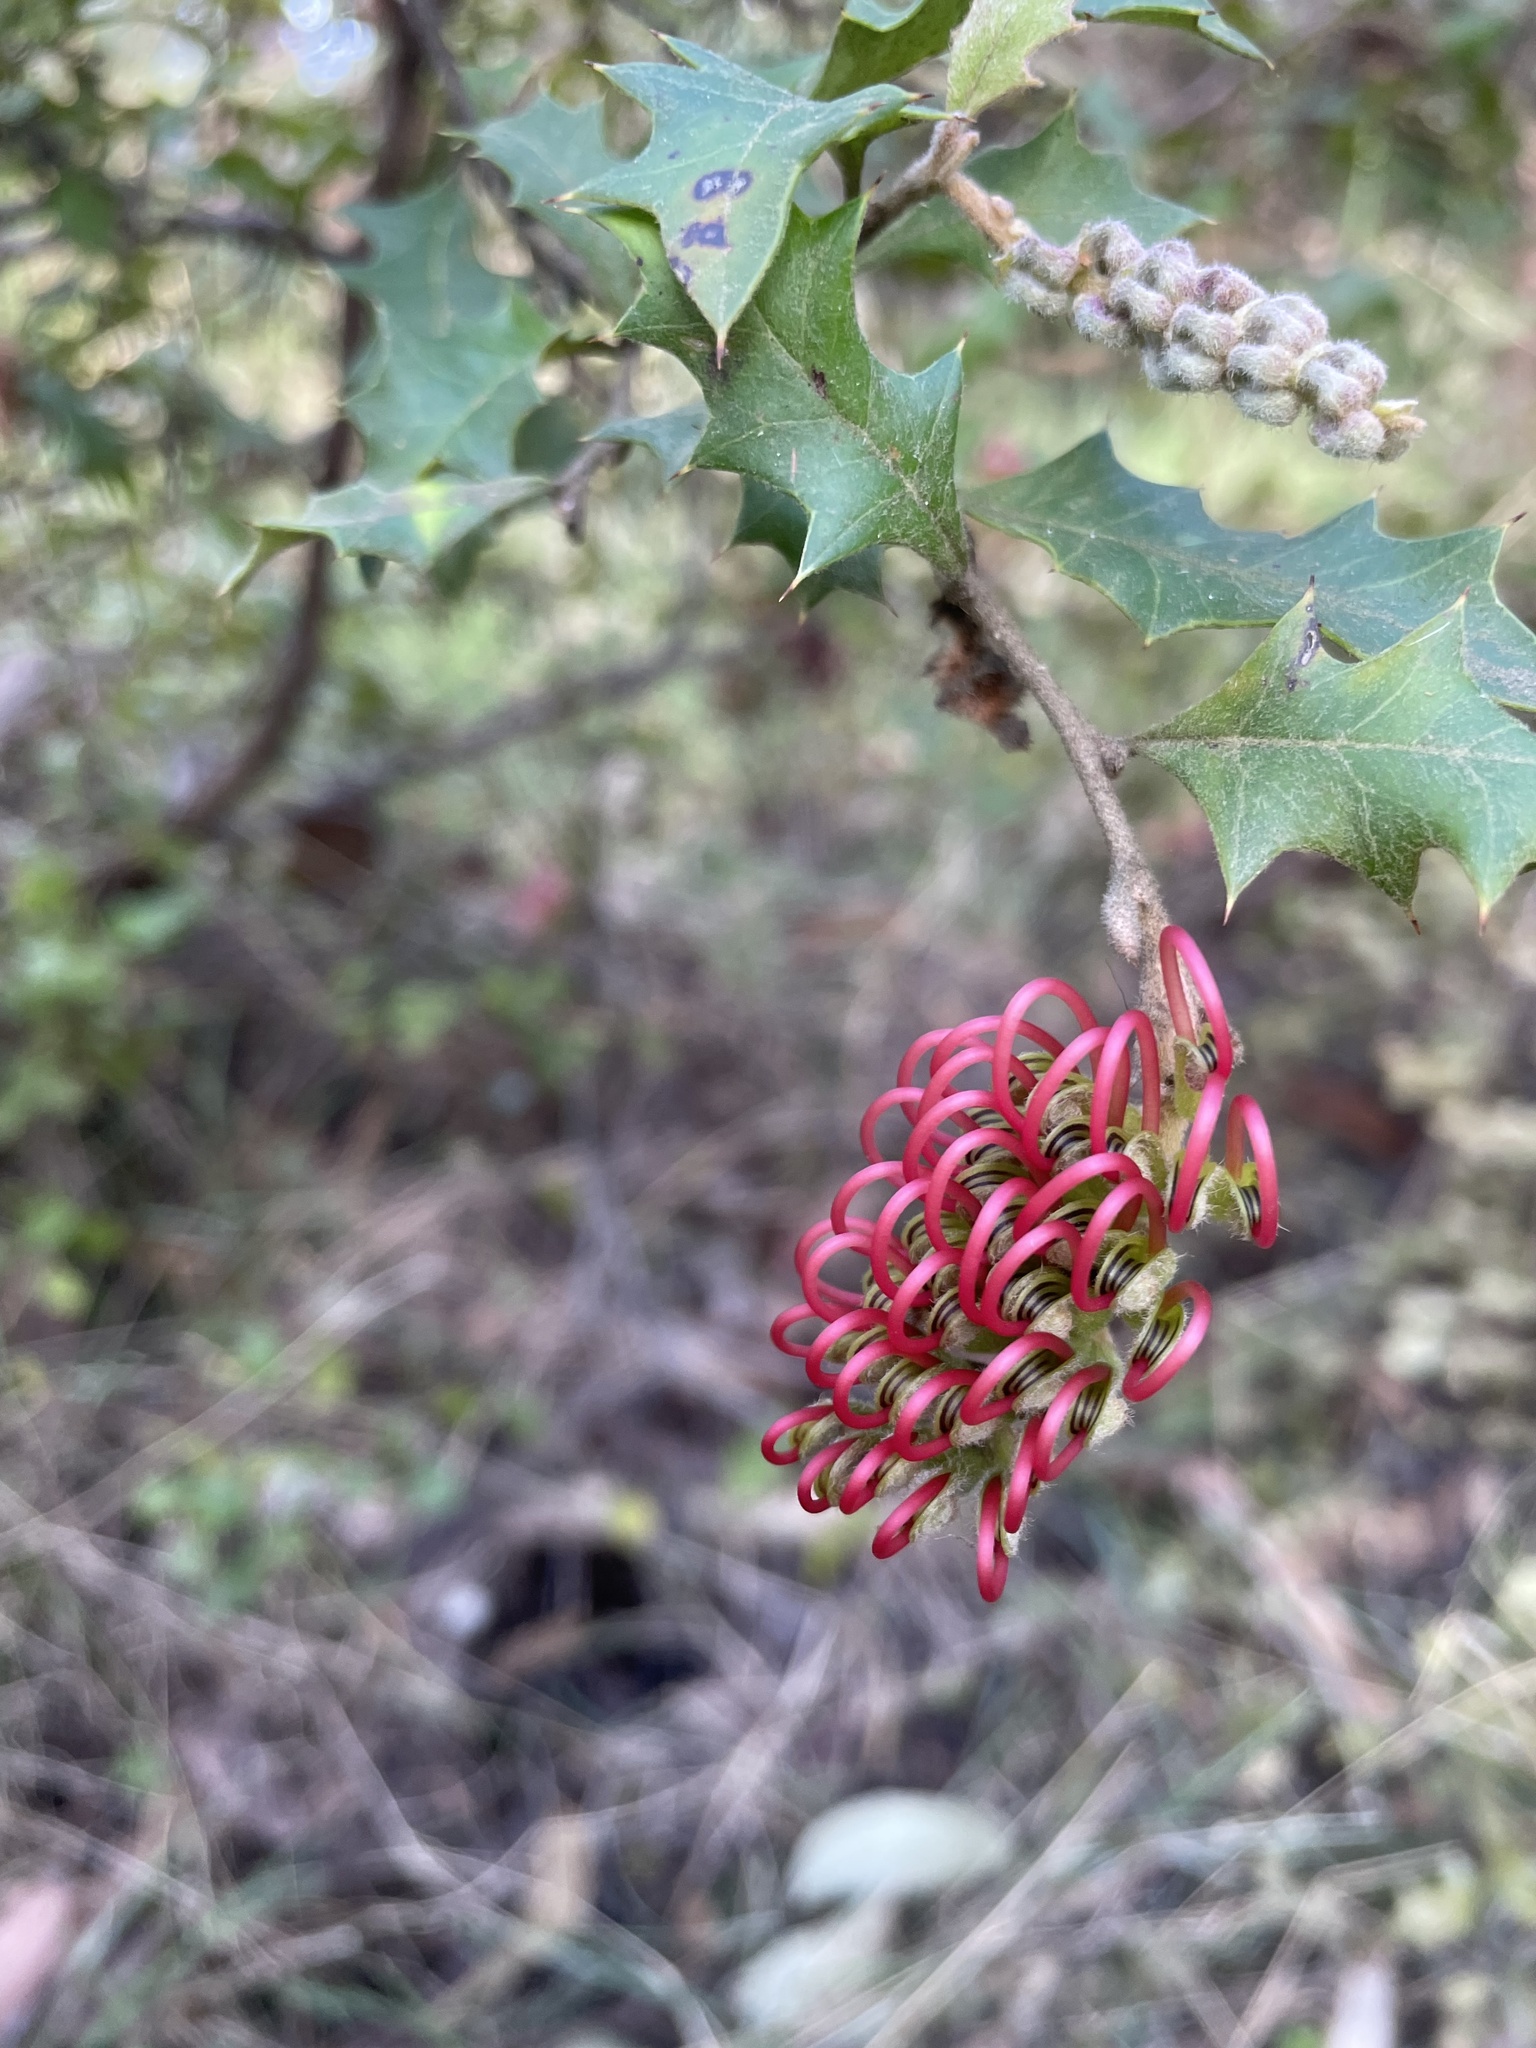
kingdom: Plantae
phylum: Tracheophyta
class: Magnoliopsida
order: Proteales
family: Proteaceae
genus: Grevillea
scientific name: Grevillea aquifolium
